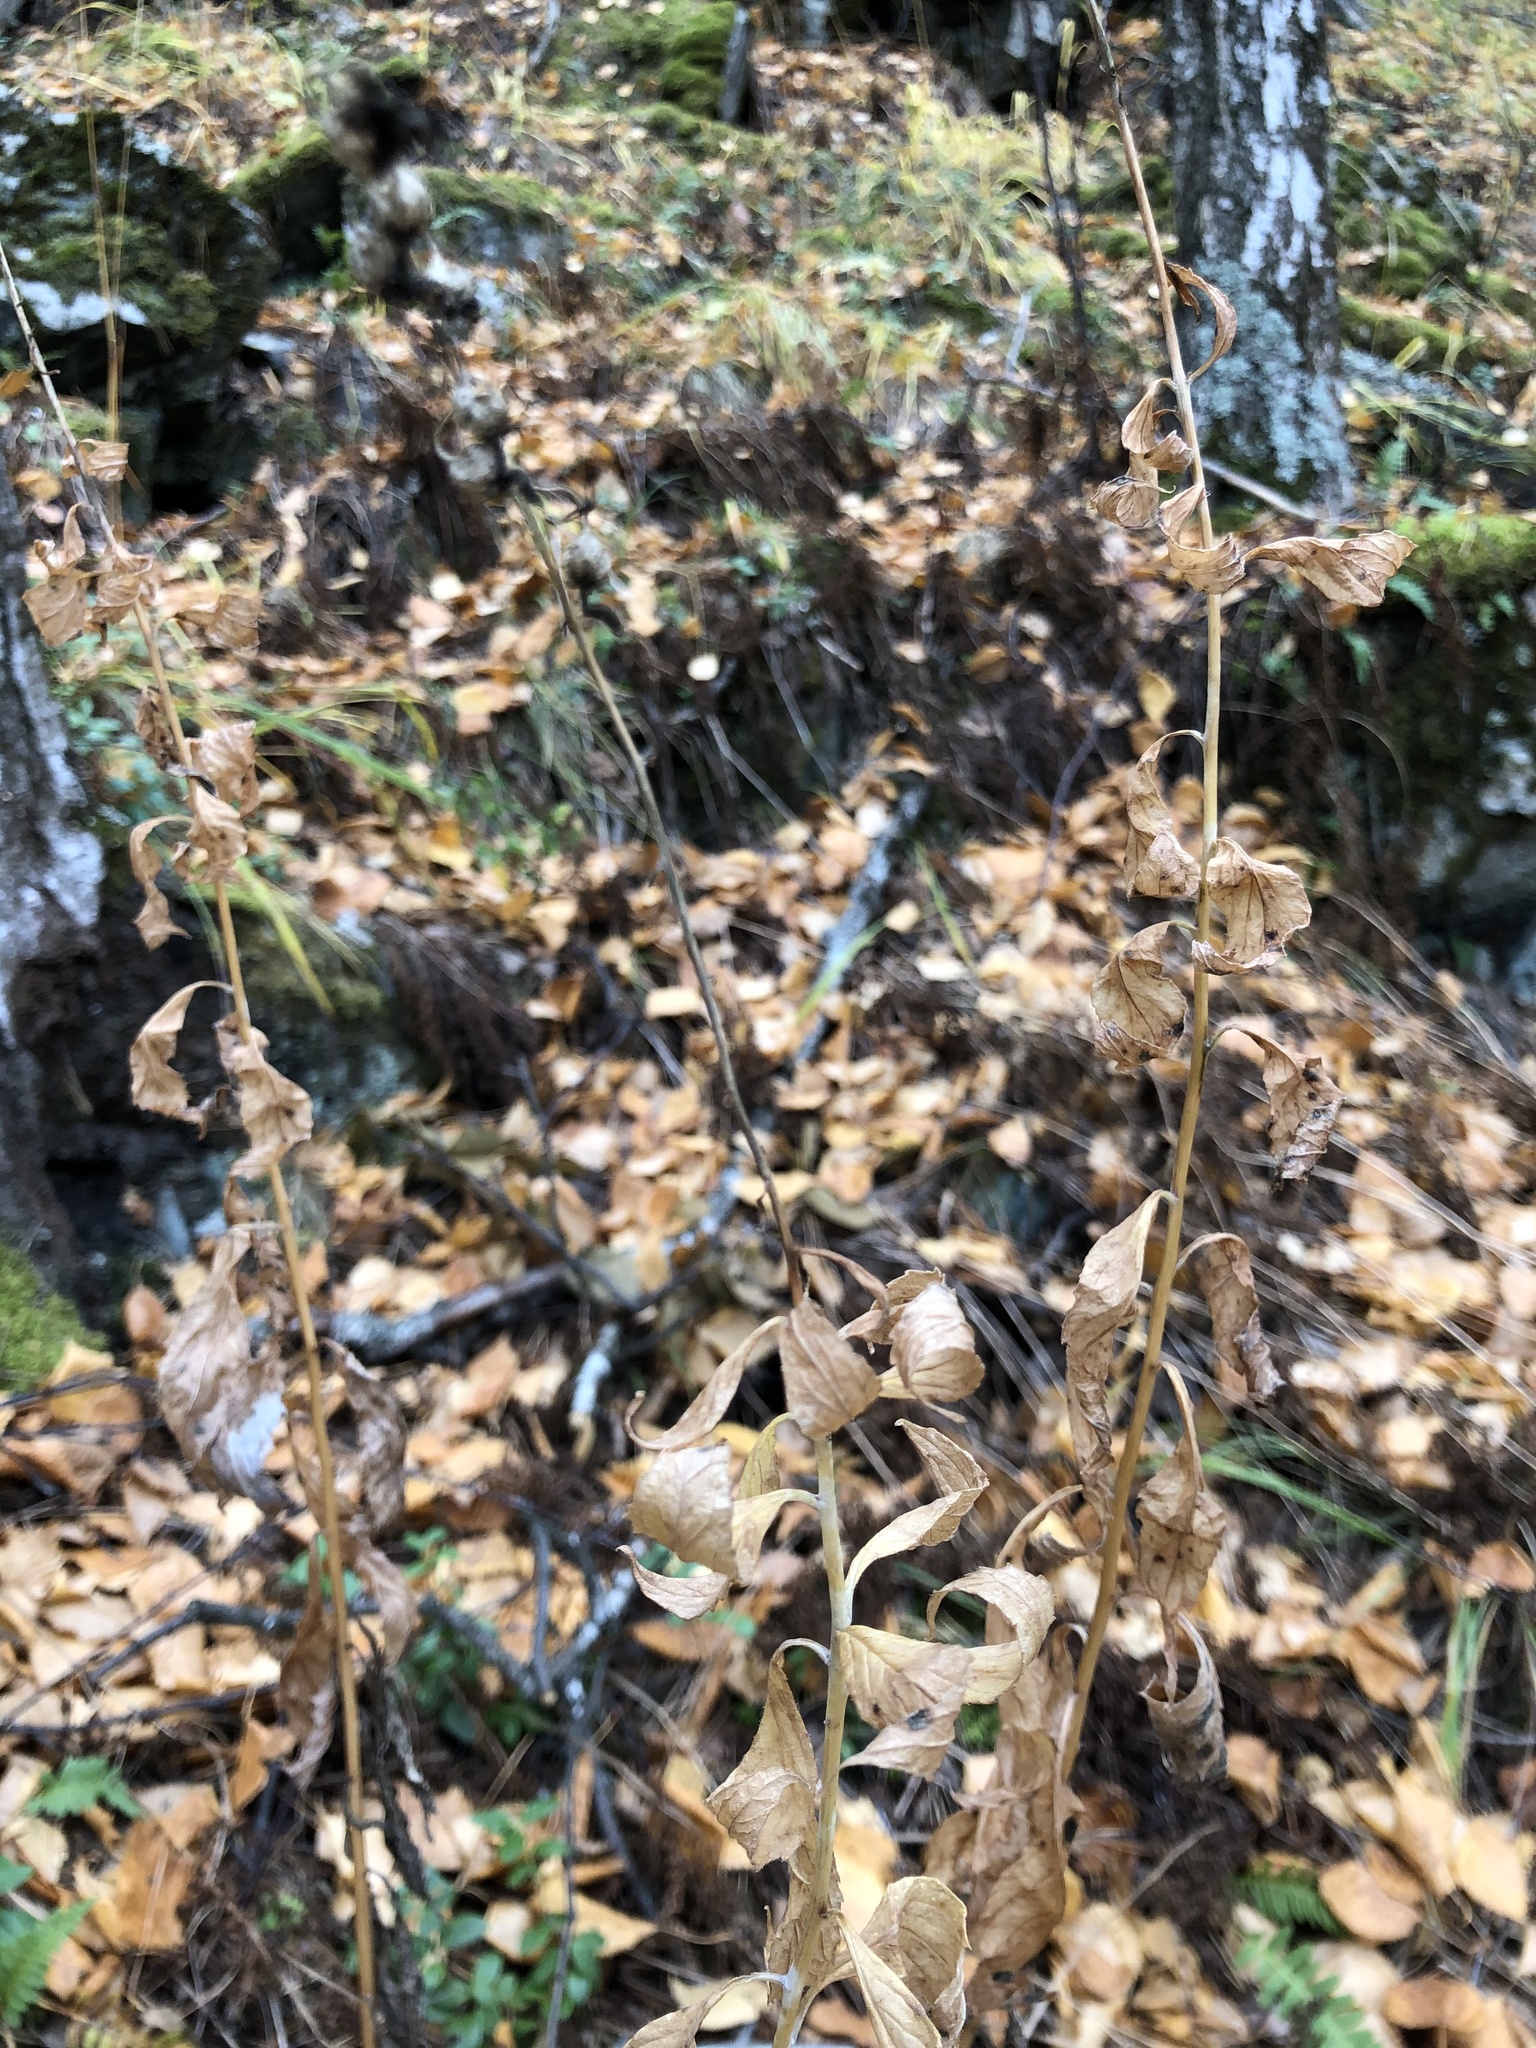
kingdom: Plantae
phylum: Tracheophyta
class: Magnoliopsida
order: Asterales
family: Campanulaceae
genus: Adenophora
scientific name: Adenophora liliifolia
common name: Lilyleaf ladybells
